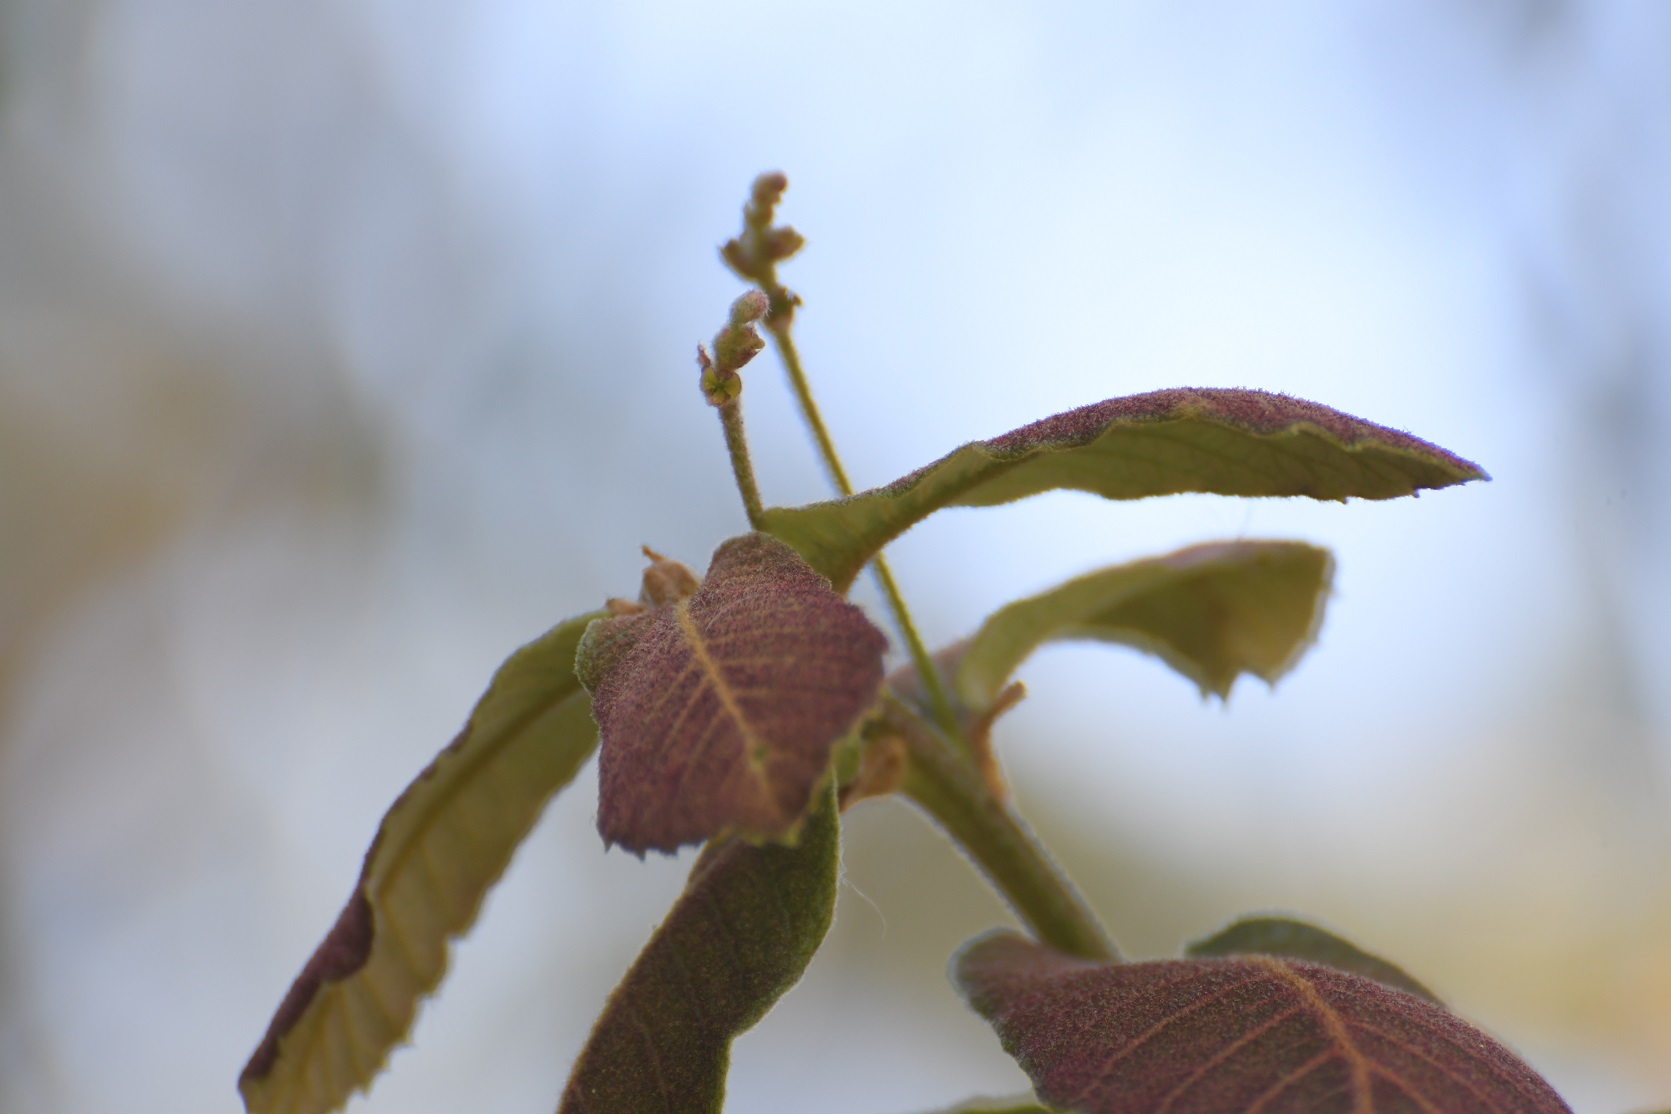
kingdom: Plantae
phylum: Tracheophyta
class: Magnoliopsida
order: Fagales
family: Fagaceae
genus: Quercus
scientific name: Quercus rugosa
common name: Netleaf oak
